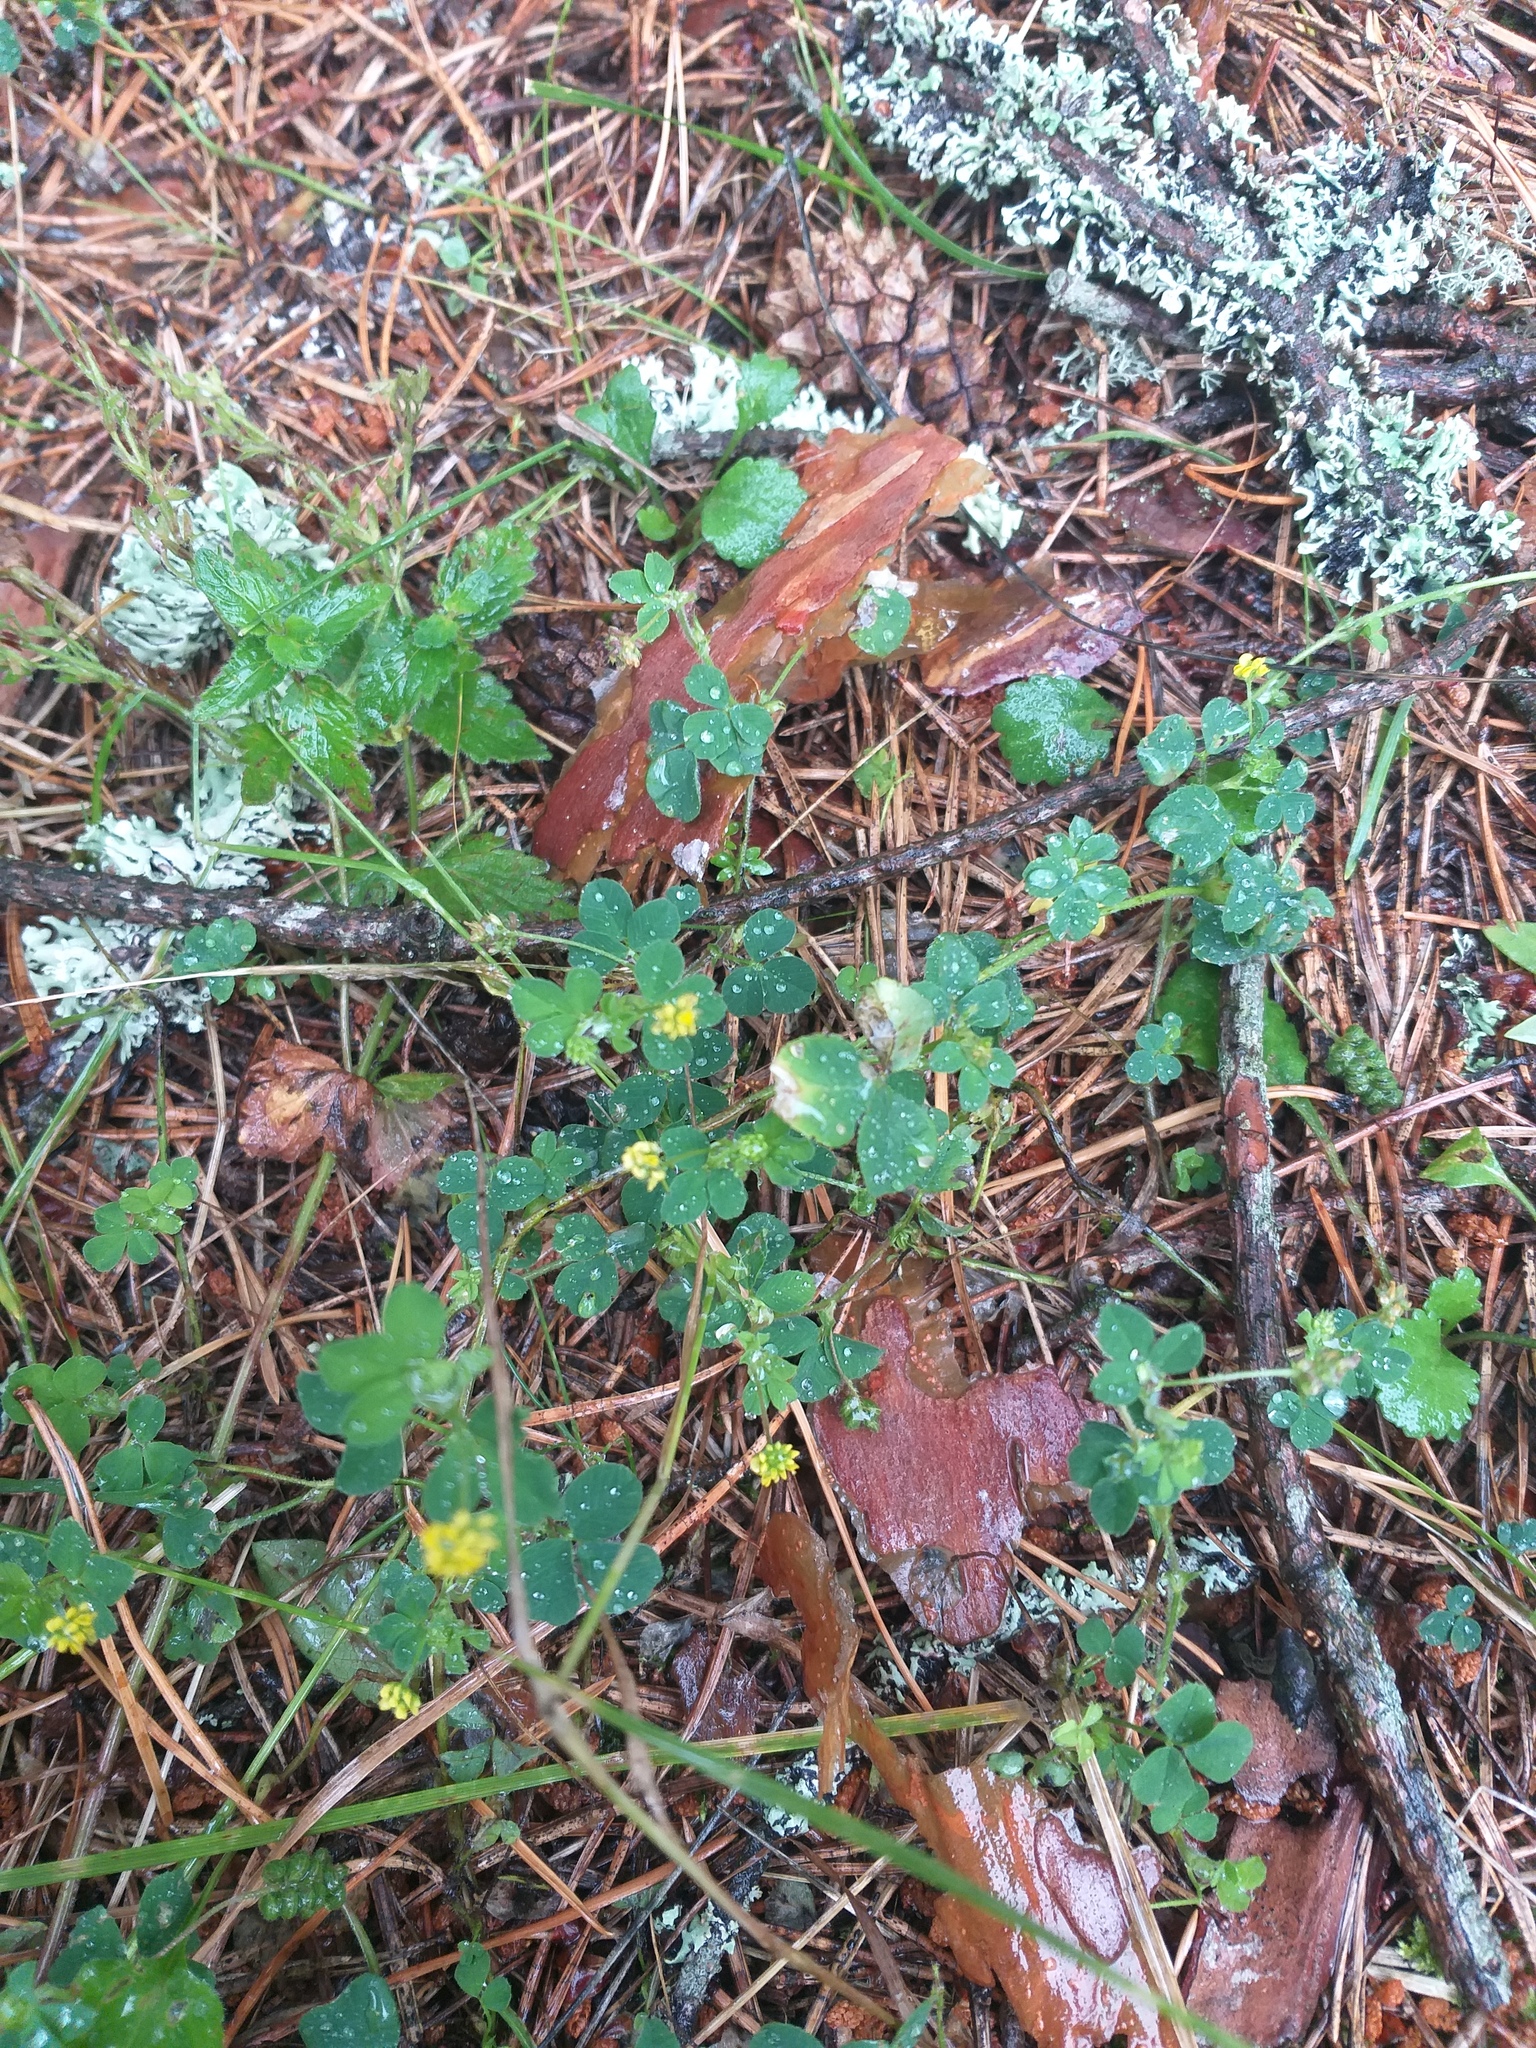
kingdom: Plantae
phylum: Tracheophyta
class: Magnoliopsida
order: Fabales
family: Fabaceae
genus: Medicago
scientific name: Medicago lupulina
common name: Black medick
